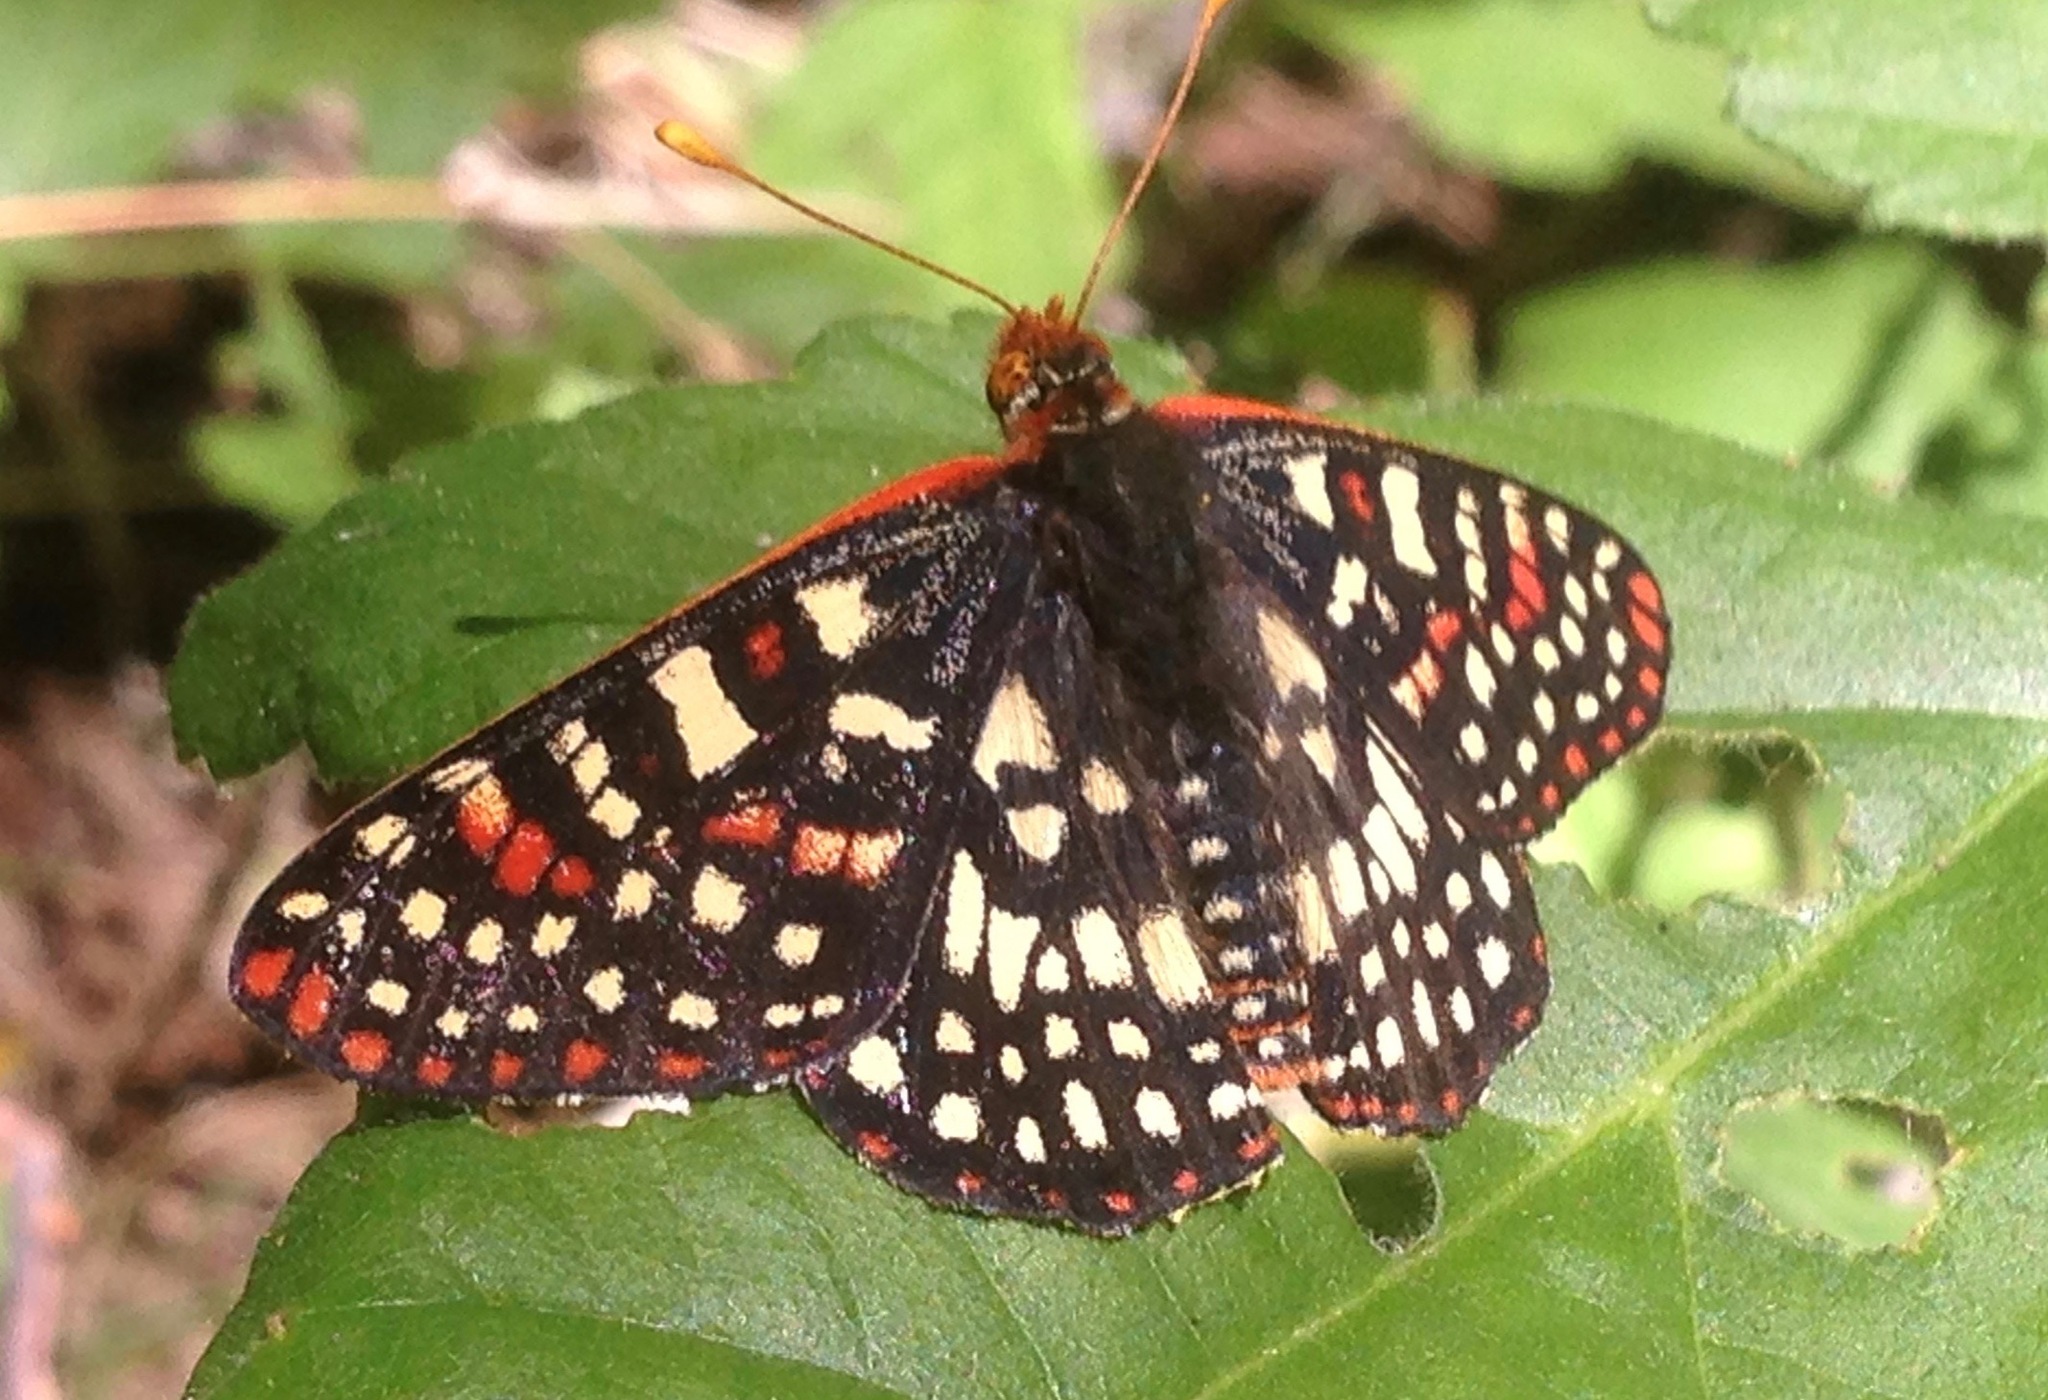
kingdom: Animalia
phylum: Arthropoda
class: Insecta
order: Lepidoptera
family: Nymphalidae
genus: Occidryas
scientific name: Occidryas chalcedona
